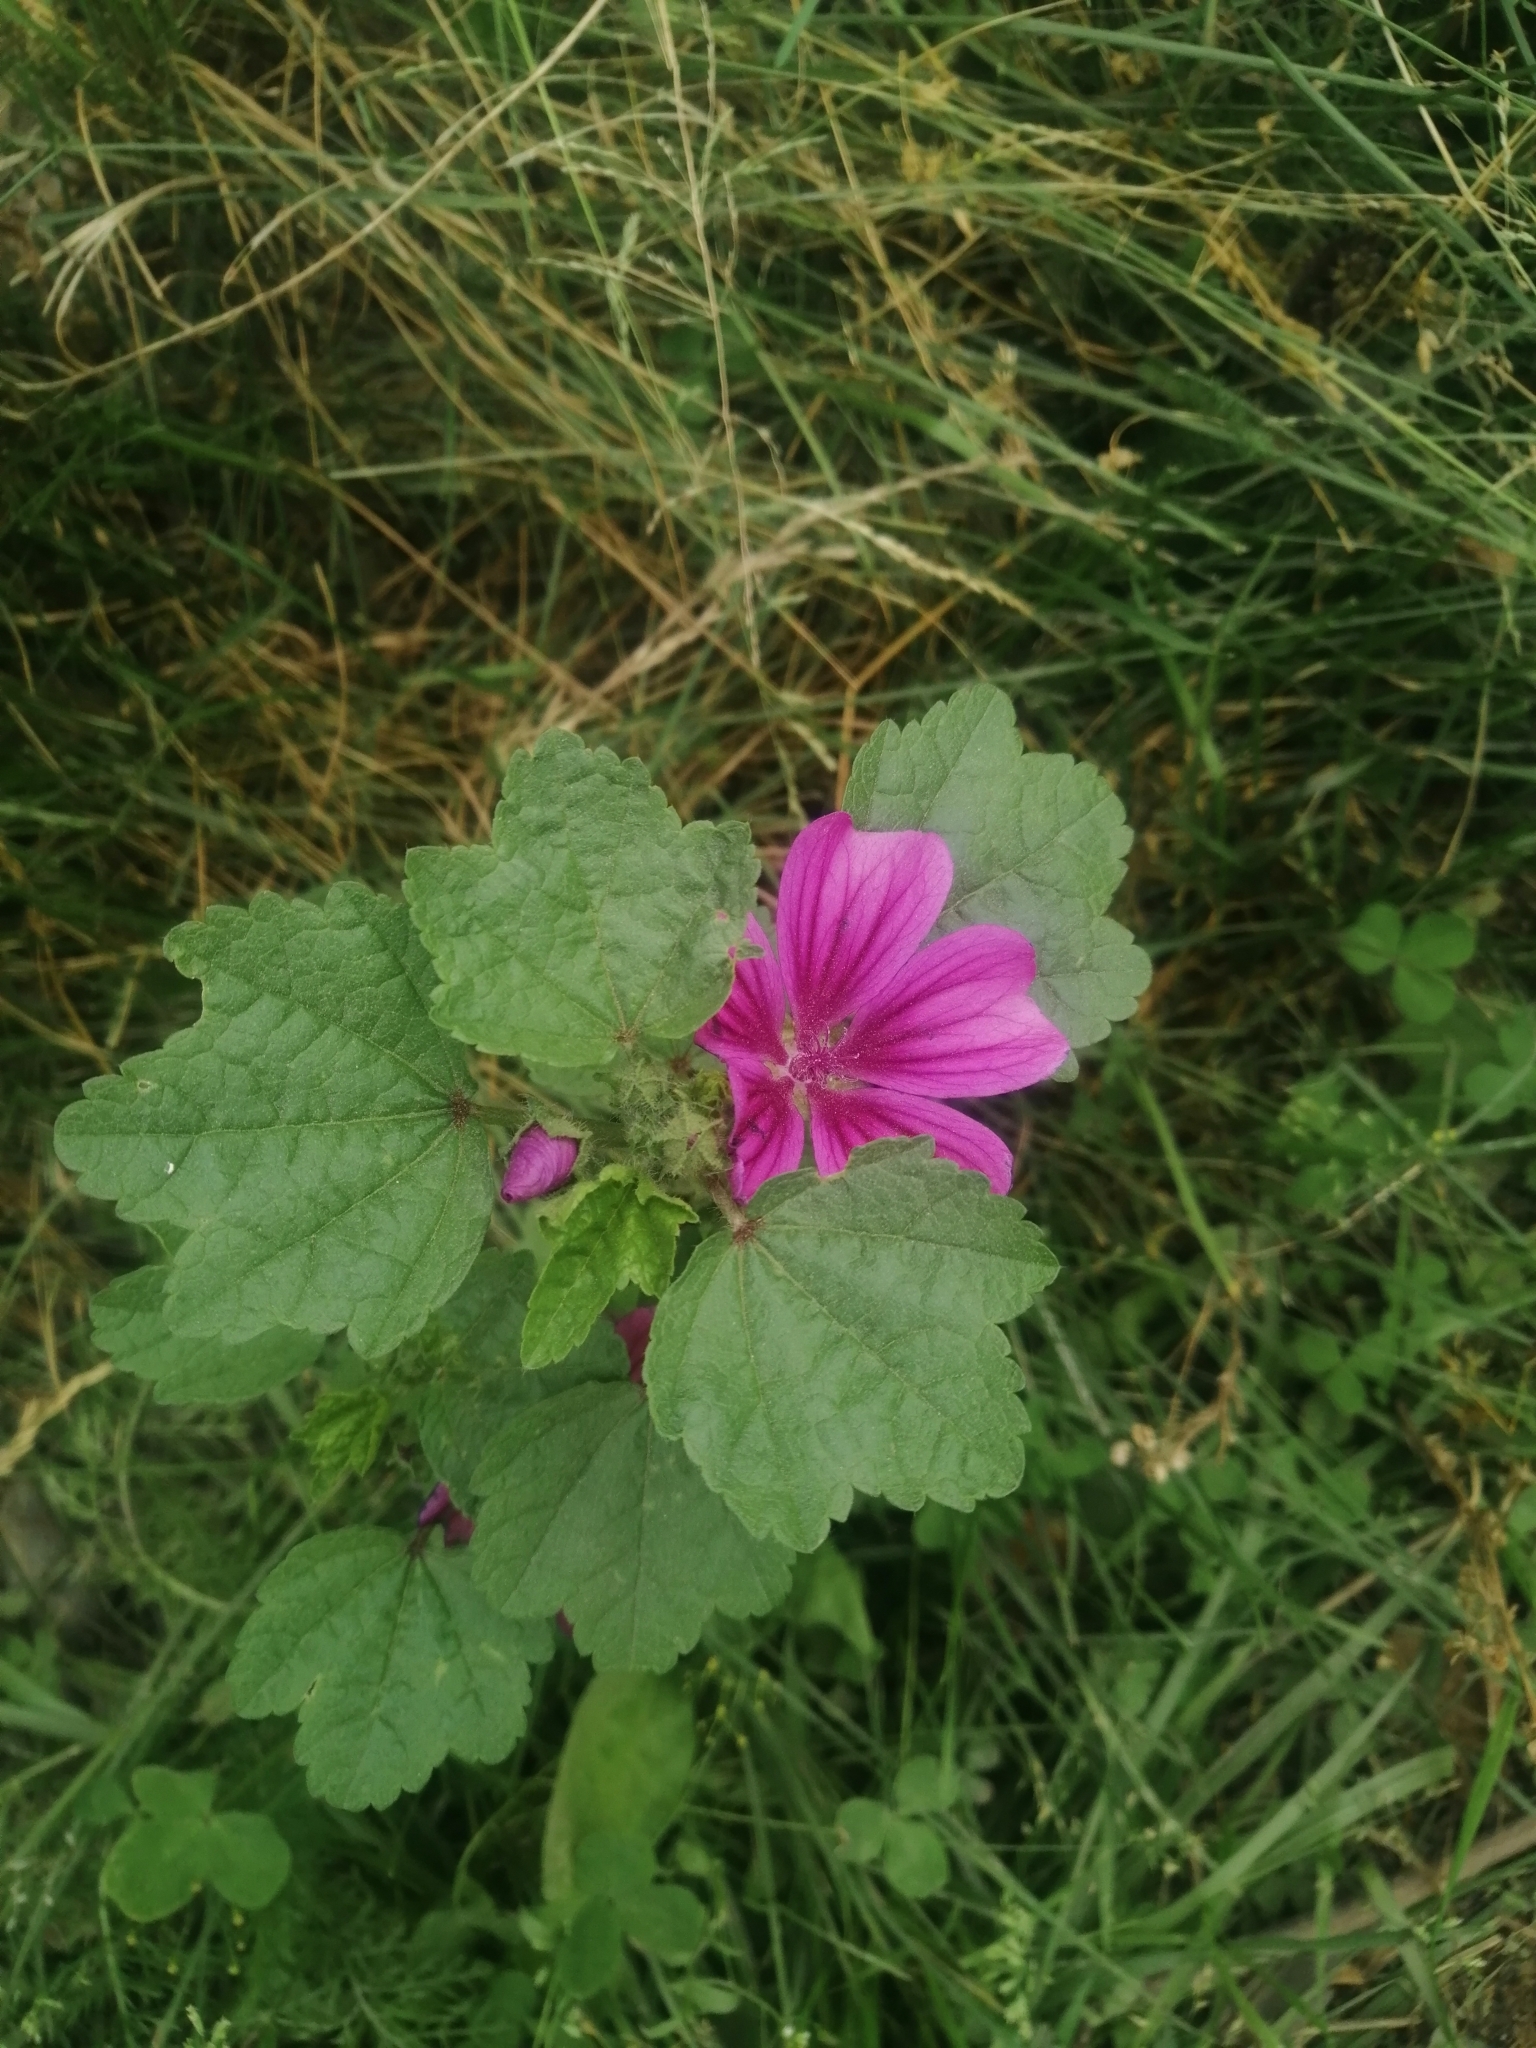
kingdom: Plantae
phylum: Tracheophyta
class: Magnoliopsida
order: Malvales
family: Malvaceae
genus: Malva
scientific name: Malva sylvestris
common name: Common mallow
